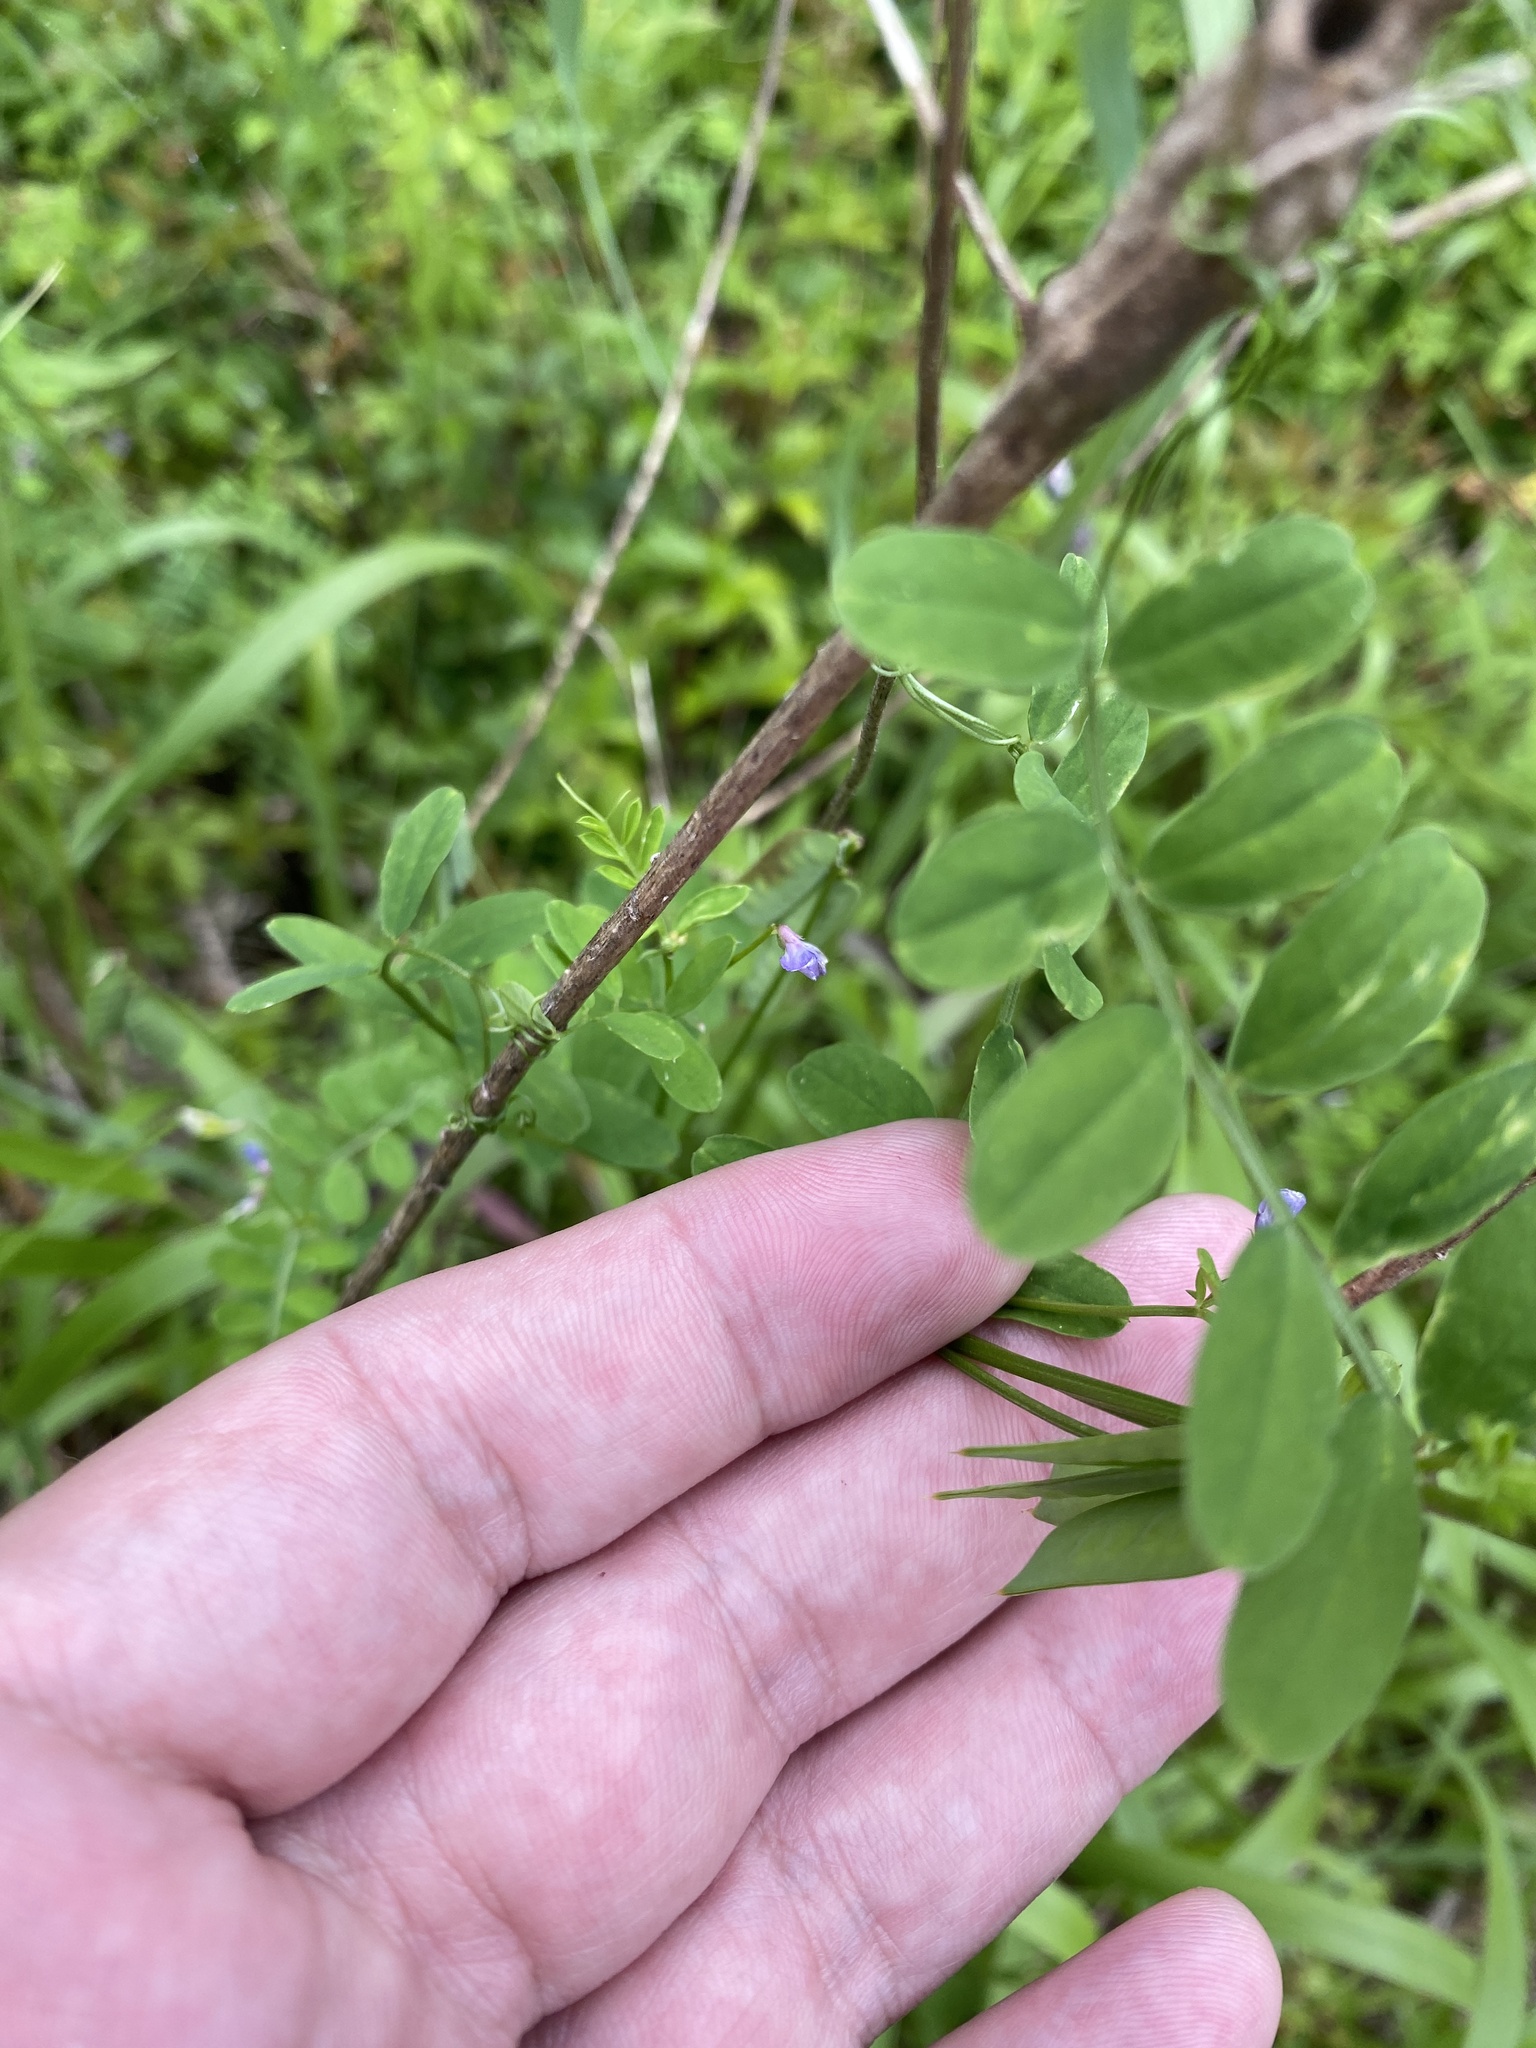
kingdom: Plantae
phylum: Tracheophyta
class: Magnoliopsida
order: Fabales
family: Fabaceae
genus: Vicia
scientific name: Vicia ludoviciana
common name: Louisiana vetch
